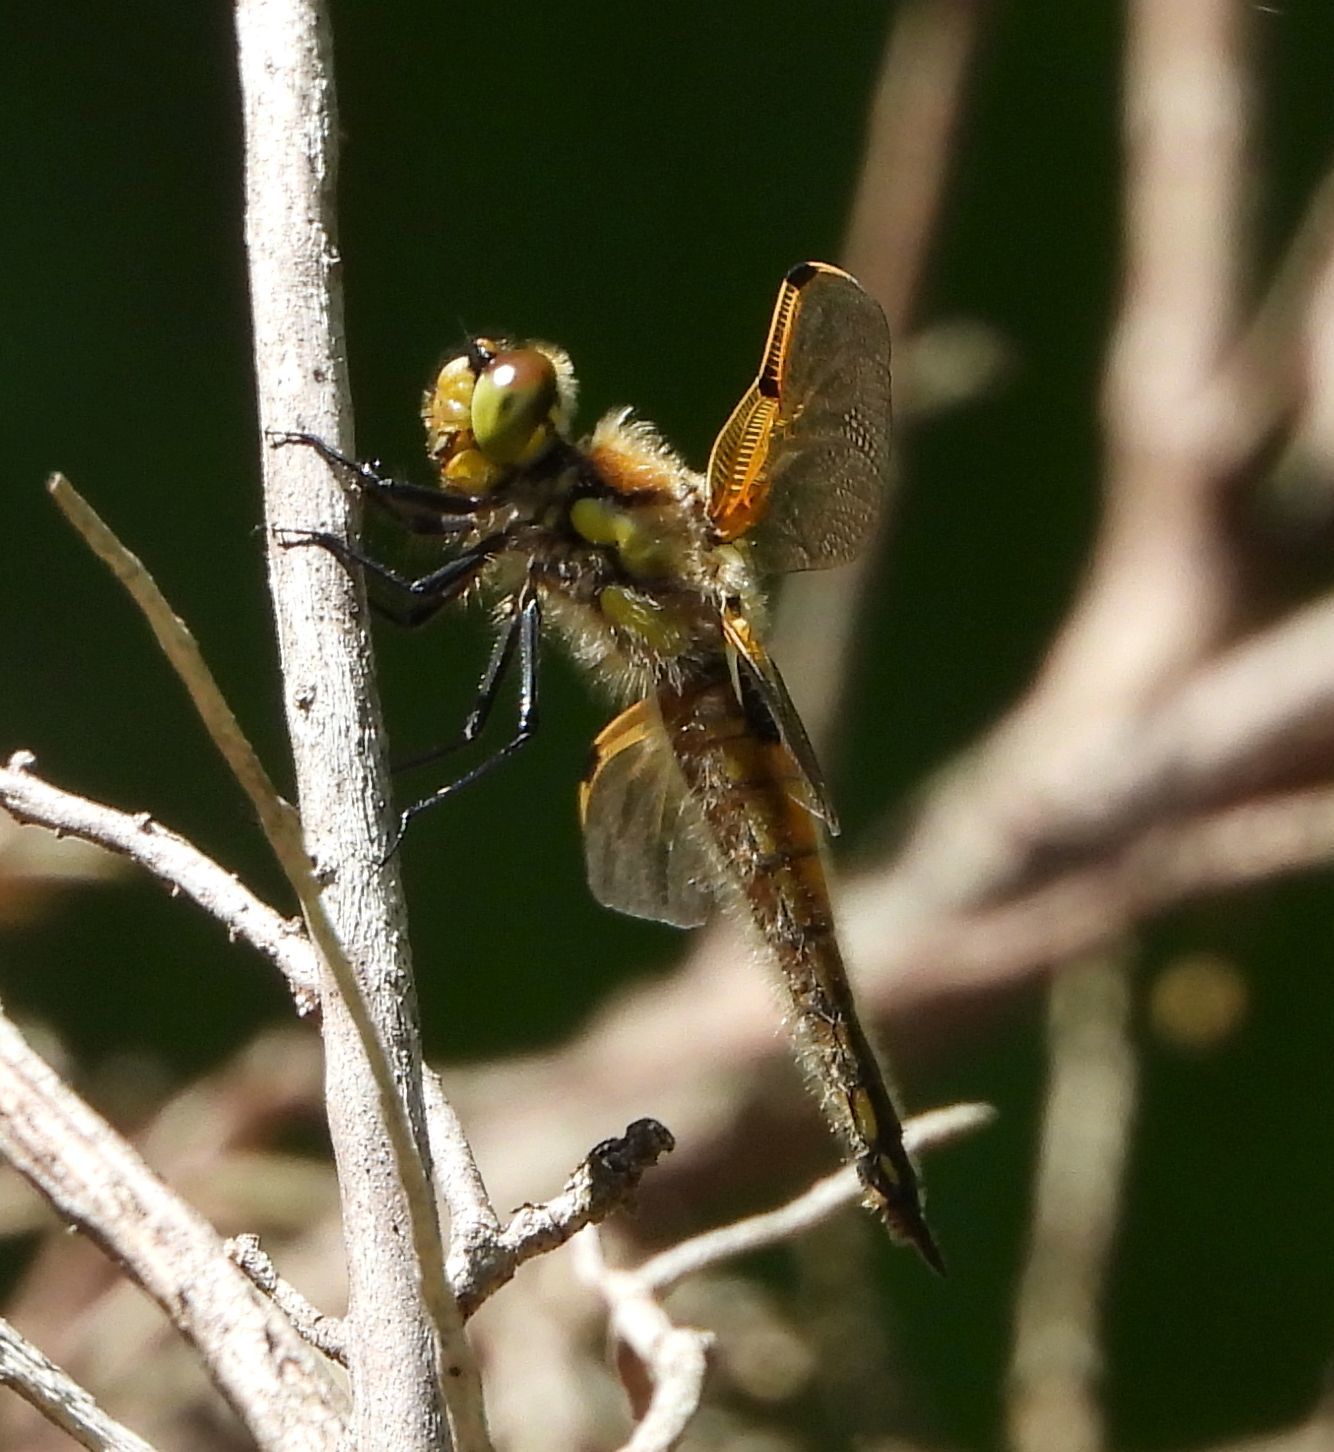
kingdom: Animalia
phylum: Arthropoda
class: Insecta
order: Odonata
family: Libellulidae
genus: Libellula
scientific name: Libellula quadrimaculata
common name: Four-spotted chaser
